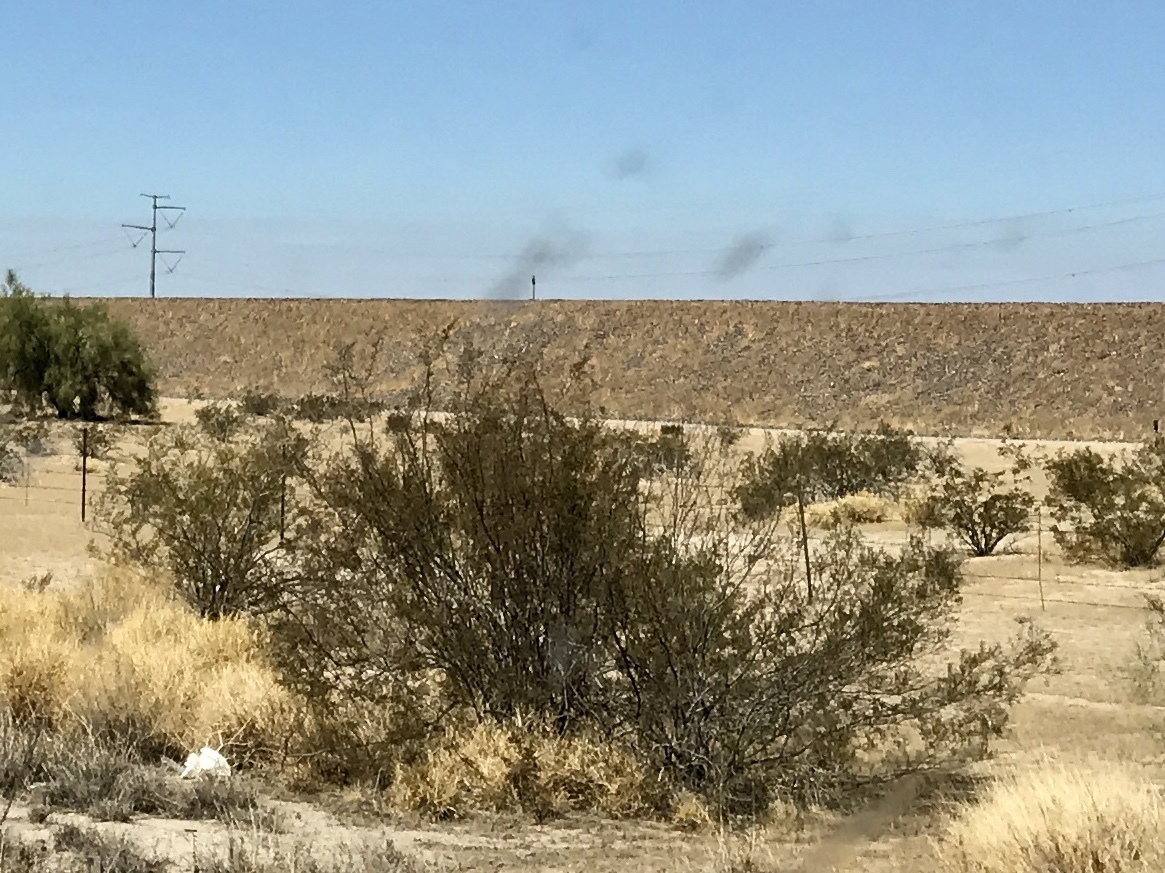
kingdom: Plantae
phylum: Tracheophyta
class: Magnoliopsida
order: Zygophyllales
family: Zygophyllaceae
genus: Larrea
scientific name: Larrea tridentata
